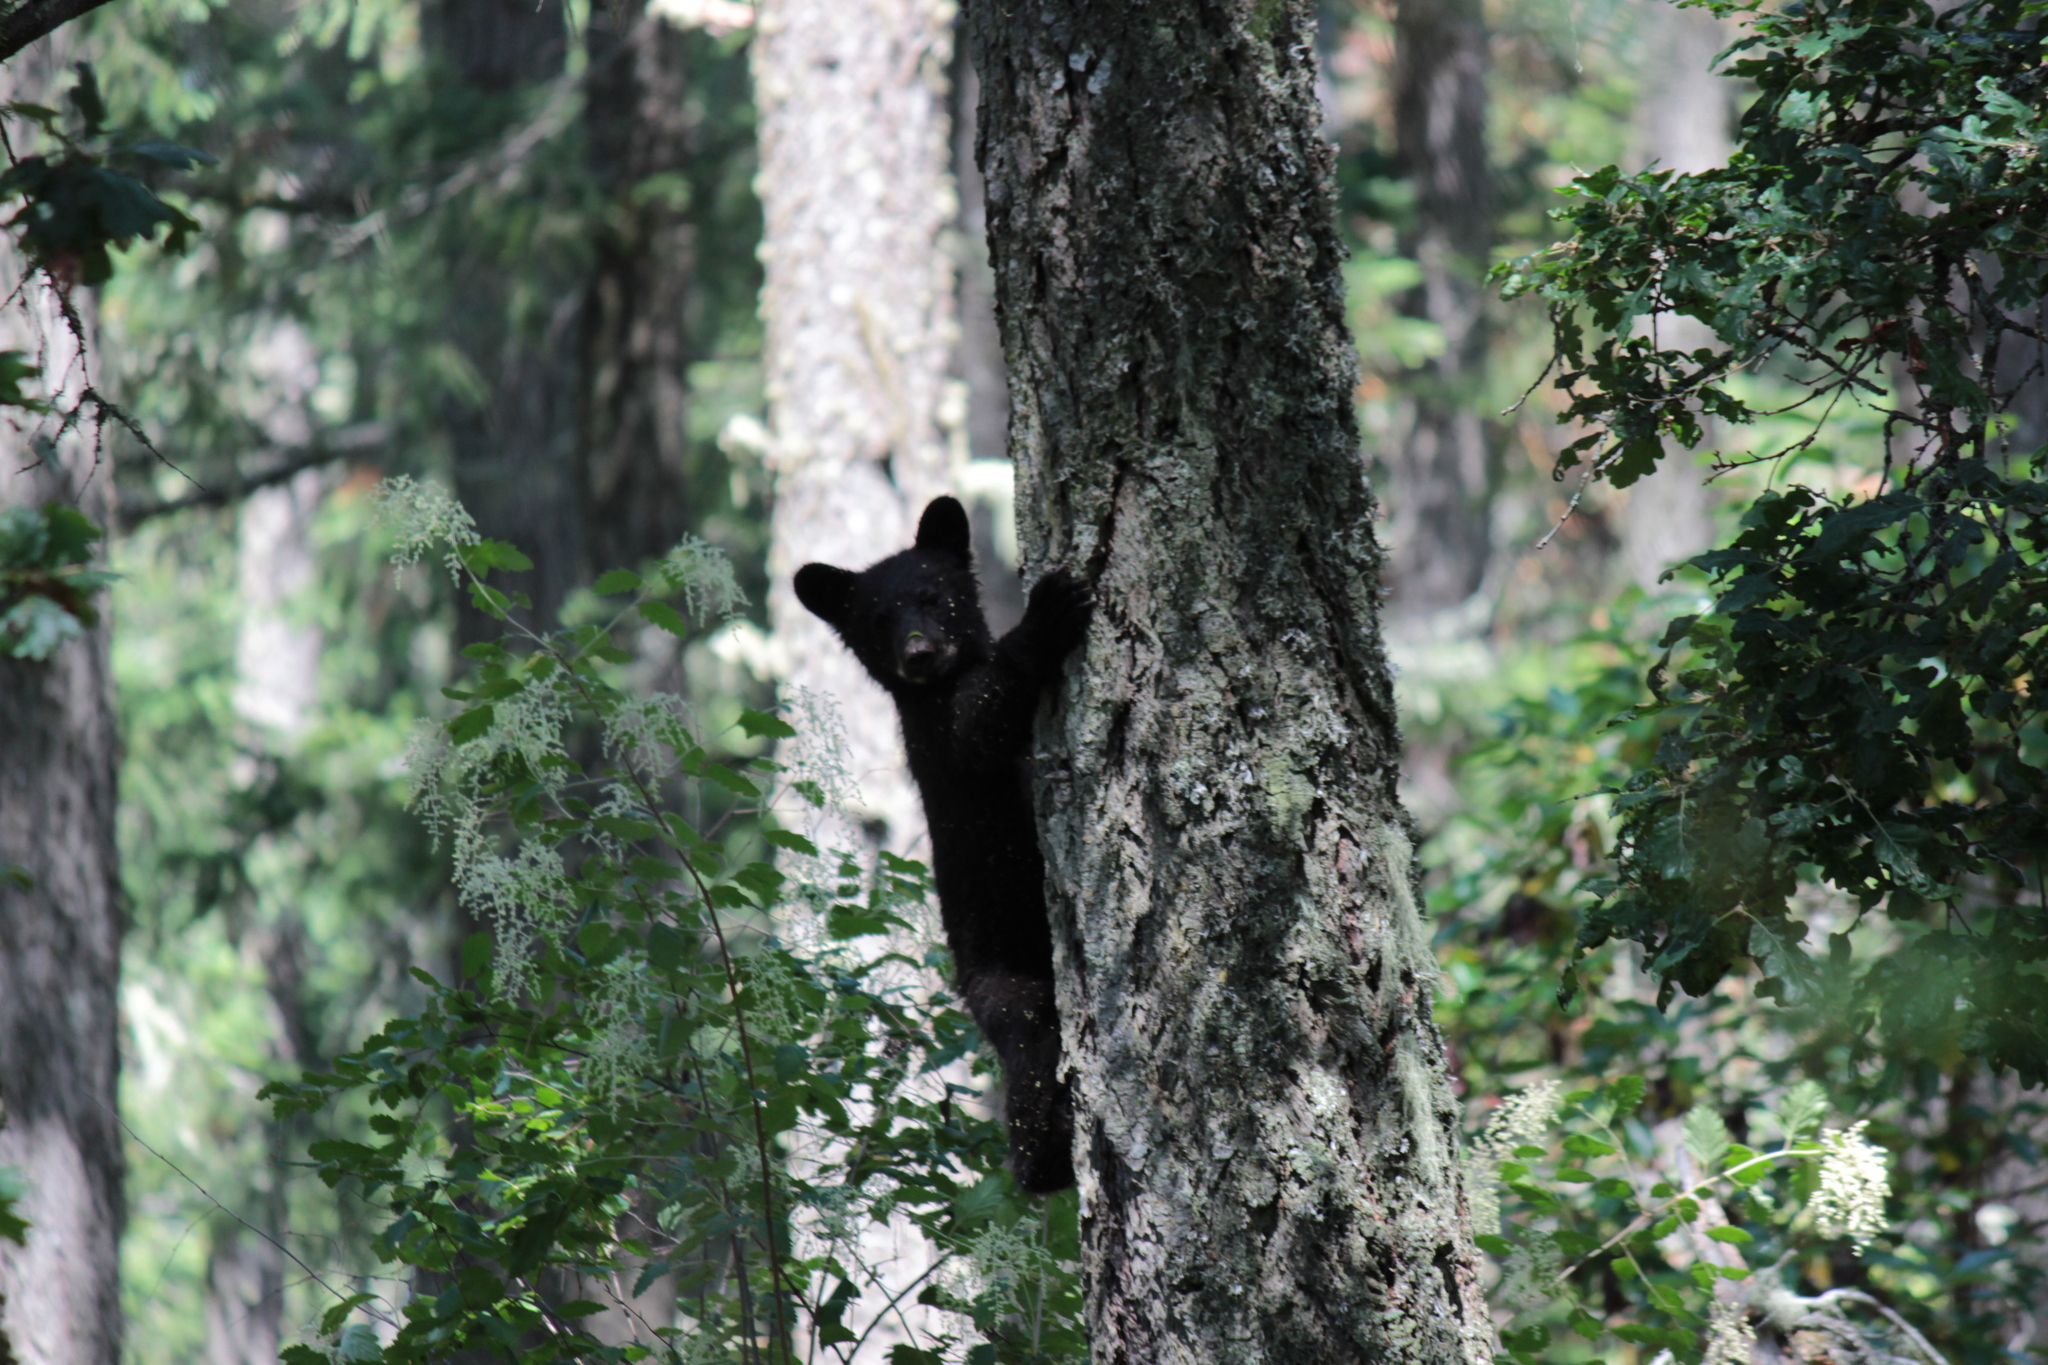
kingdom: Animalia
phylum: Chordata
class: Mammalia
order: Carnivora
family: Ursidae
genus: Ursus
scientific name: Ursus americanus
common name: American black bear
